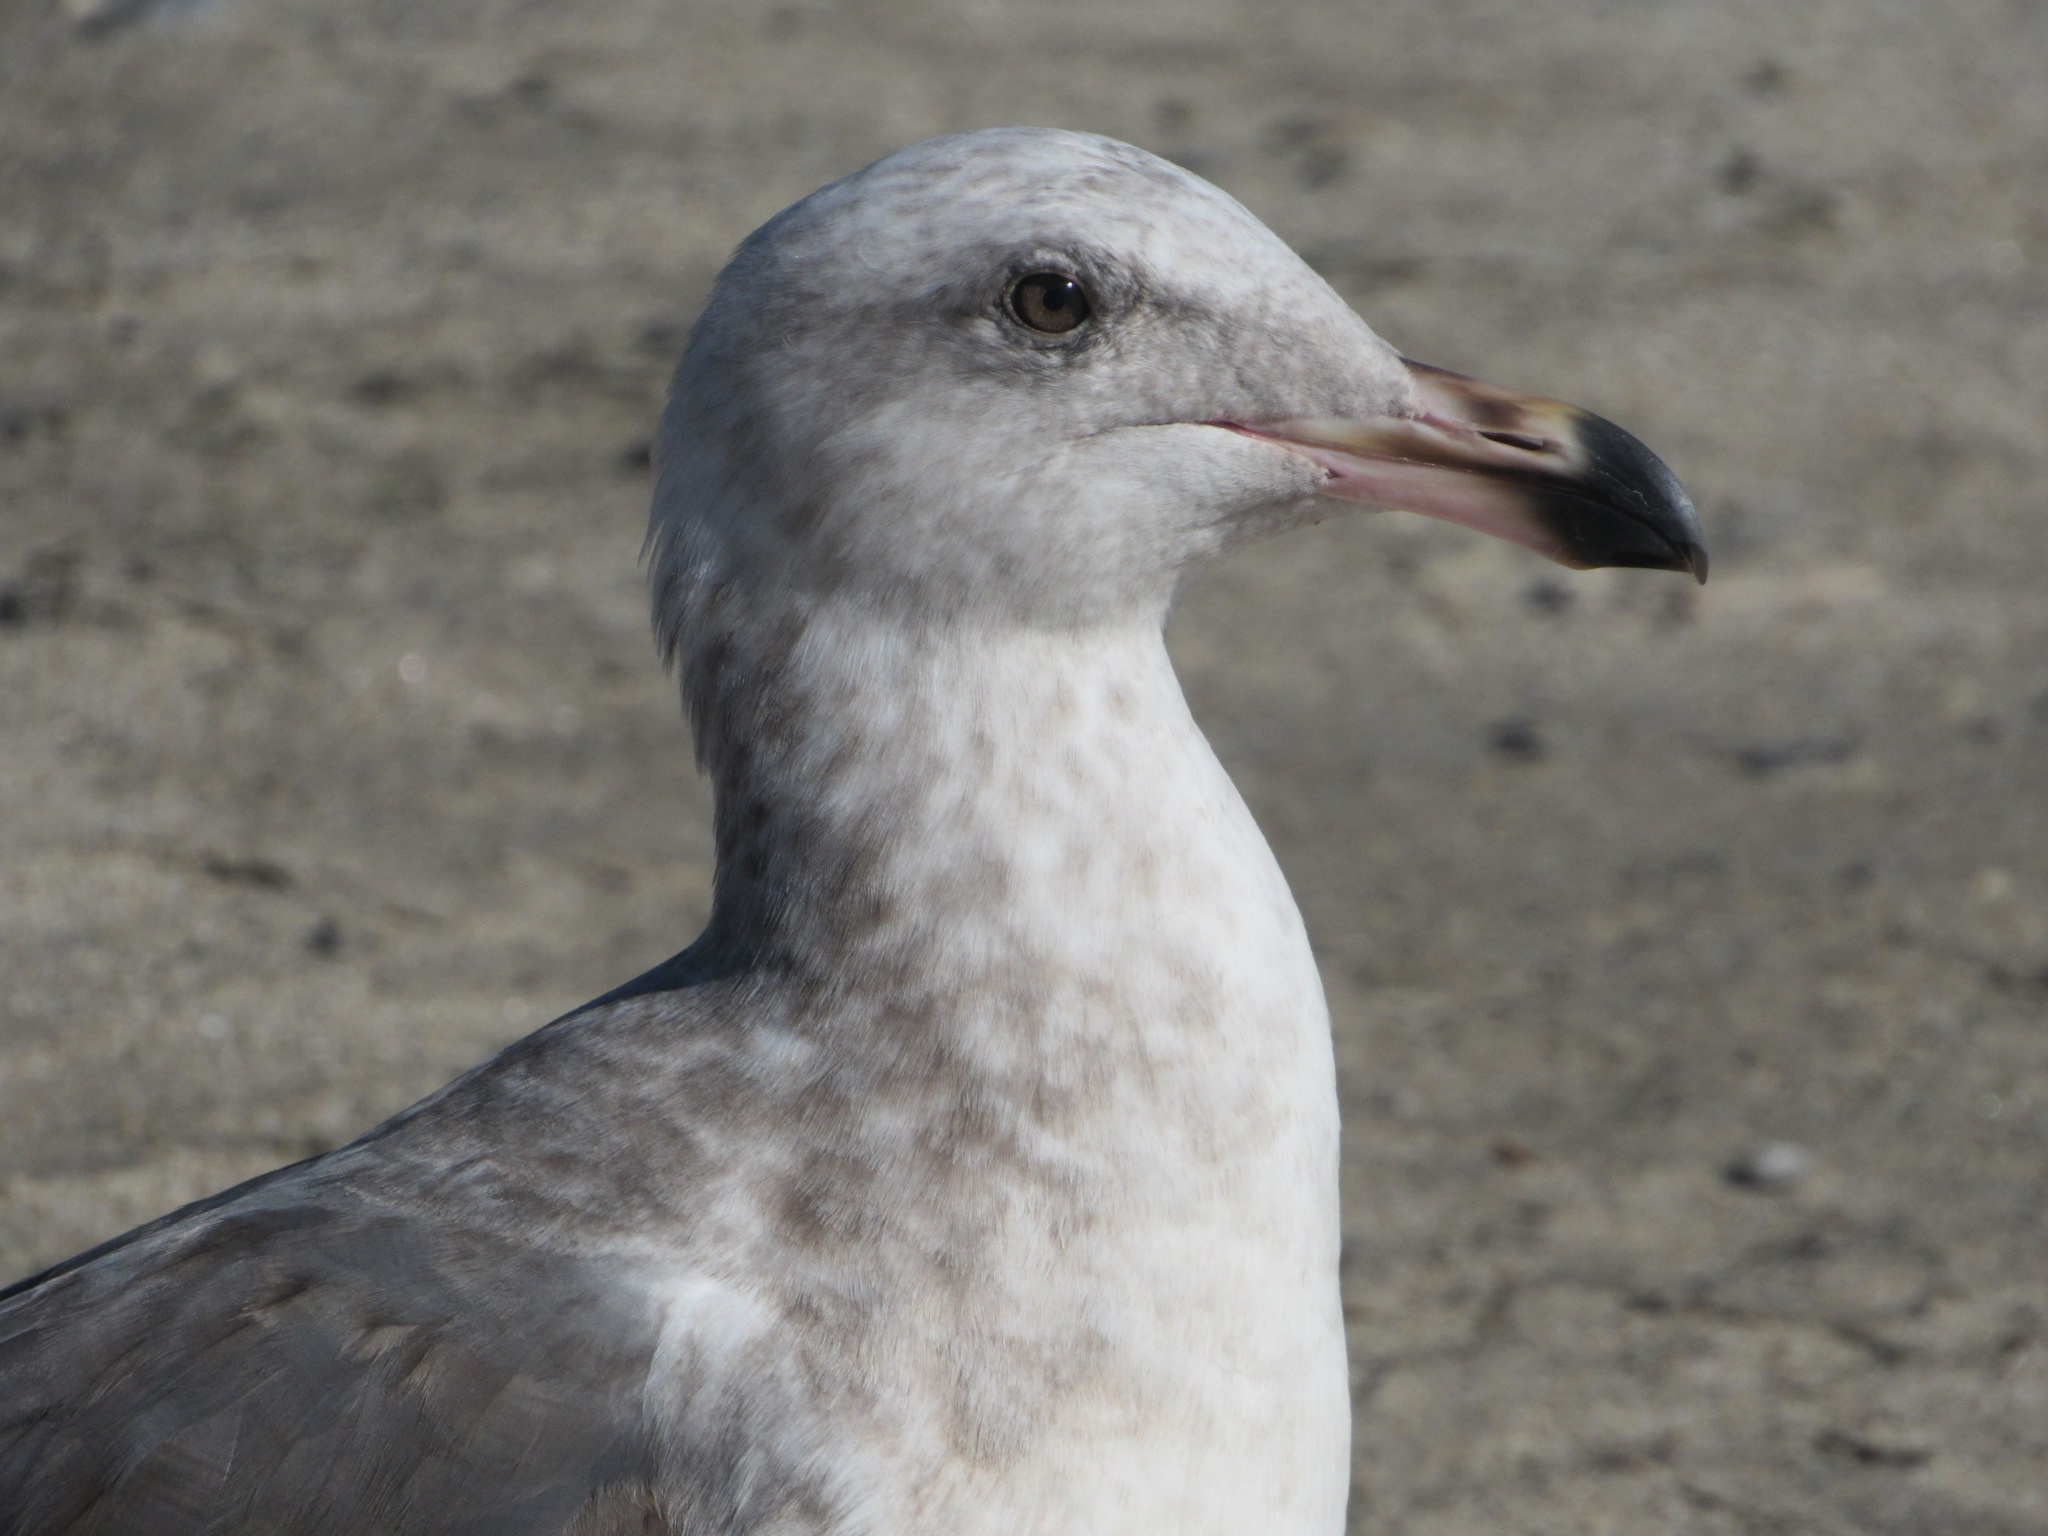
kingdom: Animalia
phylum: Chordata
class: Aves
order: Charadriiformes
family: Laridae
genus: Larus
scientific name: Larus occidentalis
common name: Western gull
